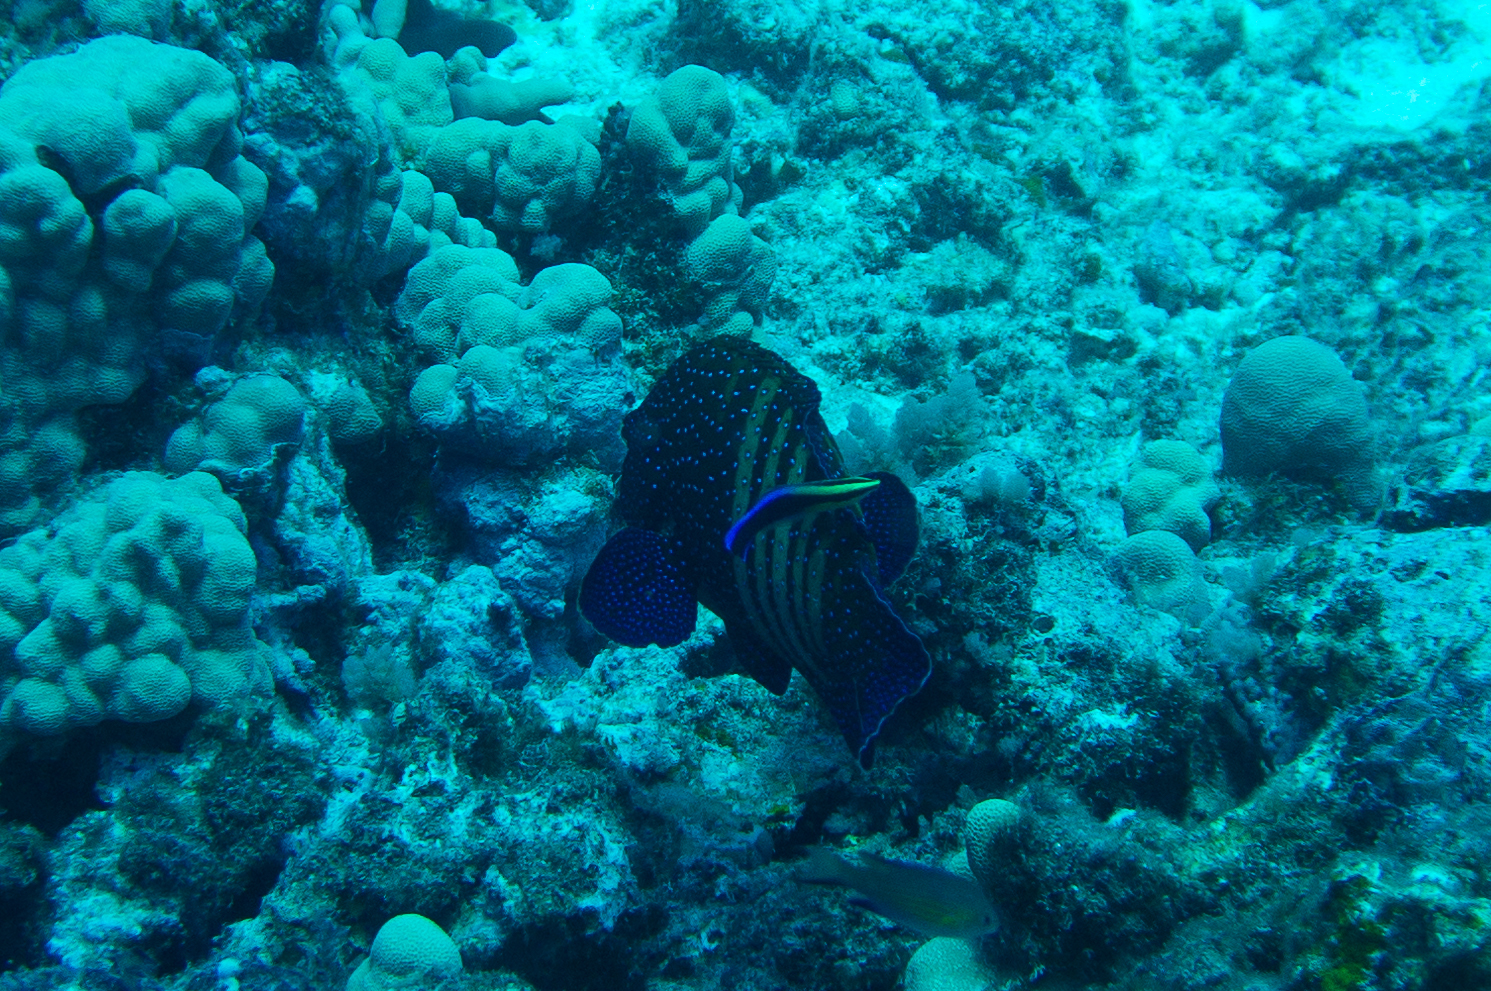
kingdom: Animalia
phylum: Chordata
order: Perciformes
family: Serranidae
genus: Cephalopholis
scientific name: Cephalopholis argus
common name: Peacock grouper
